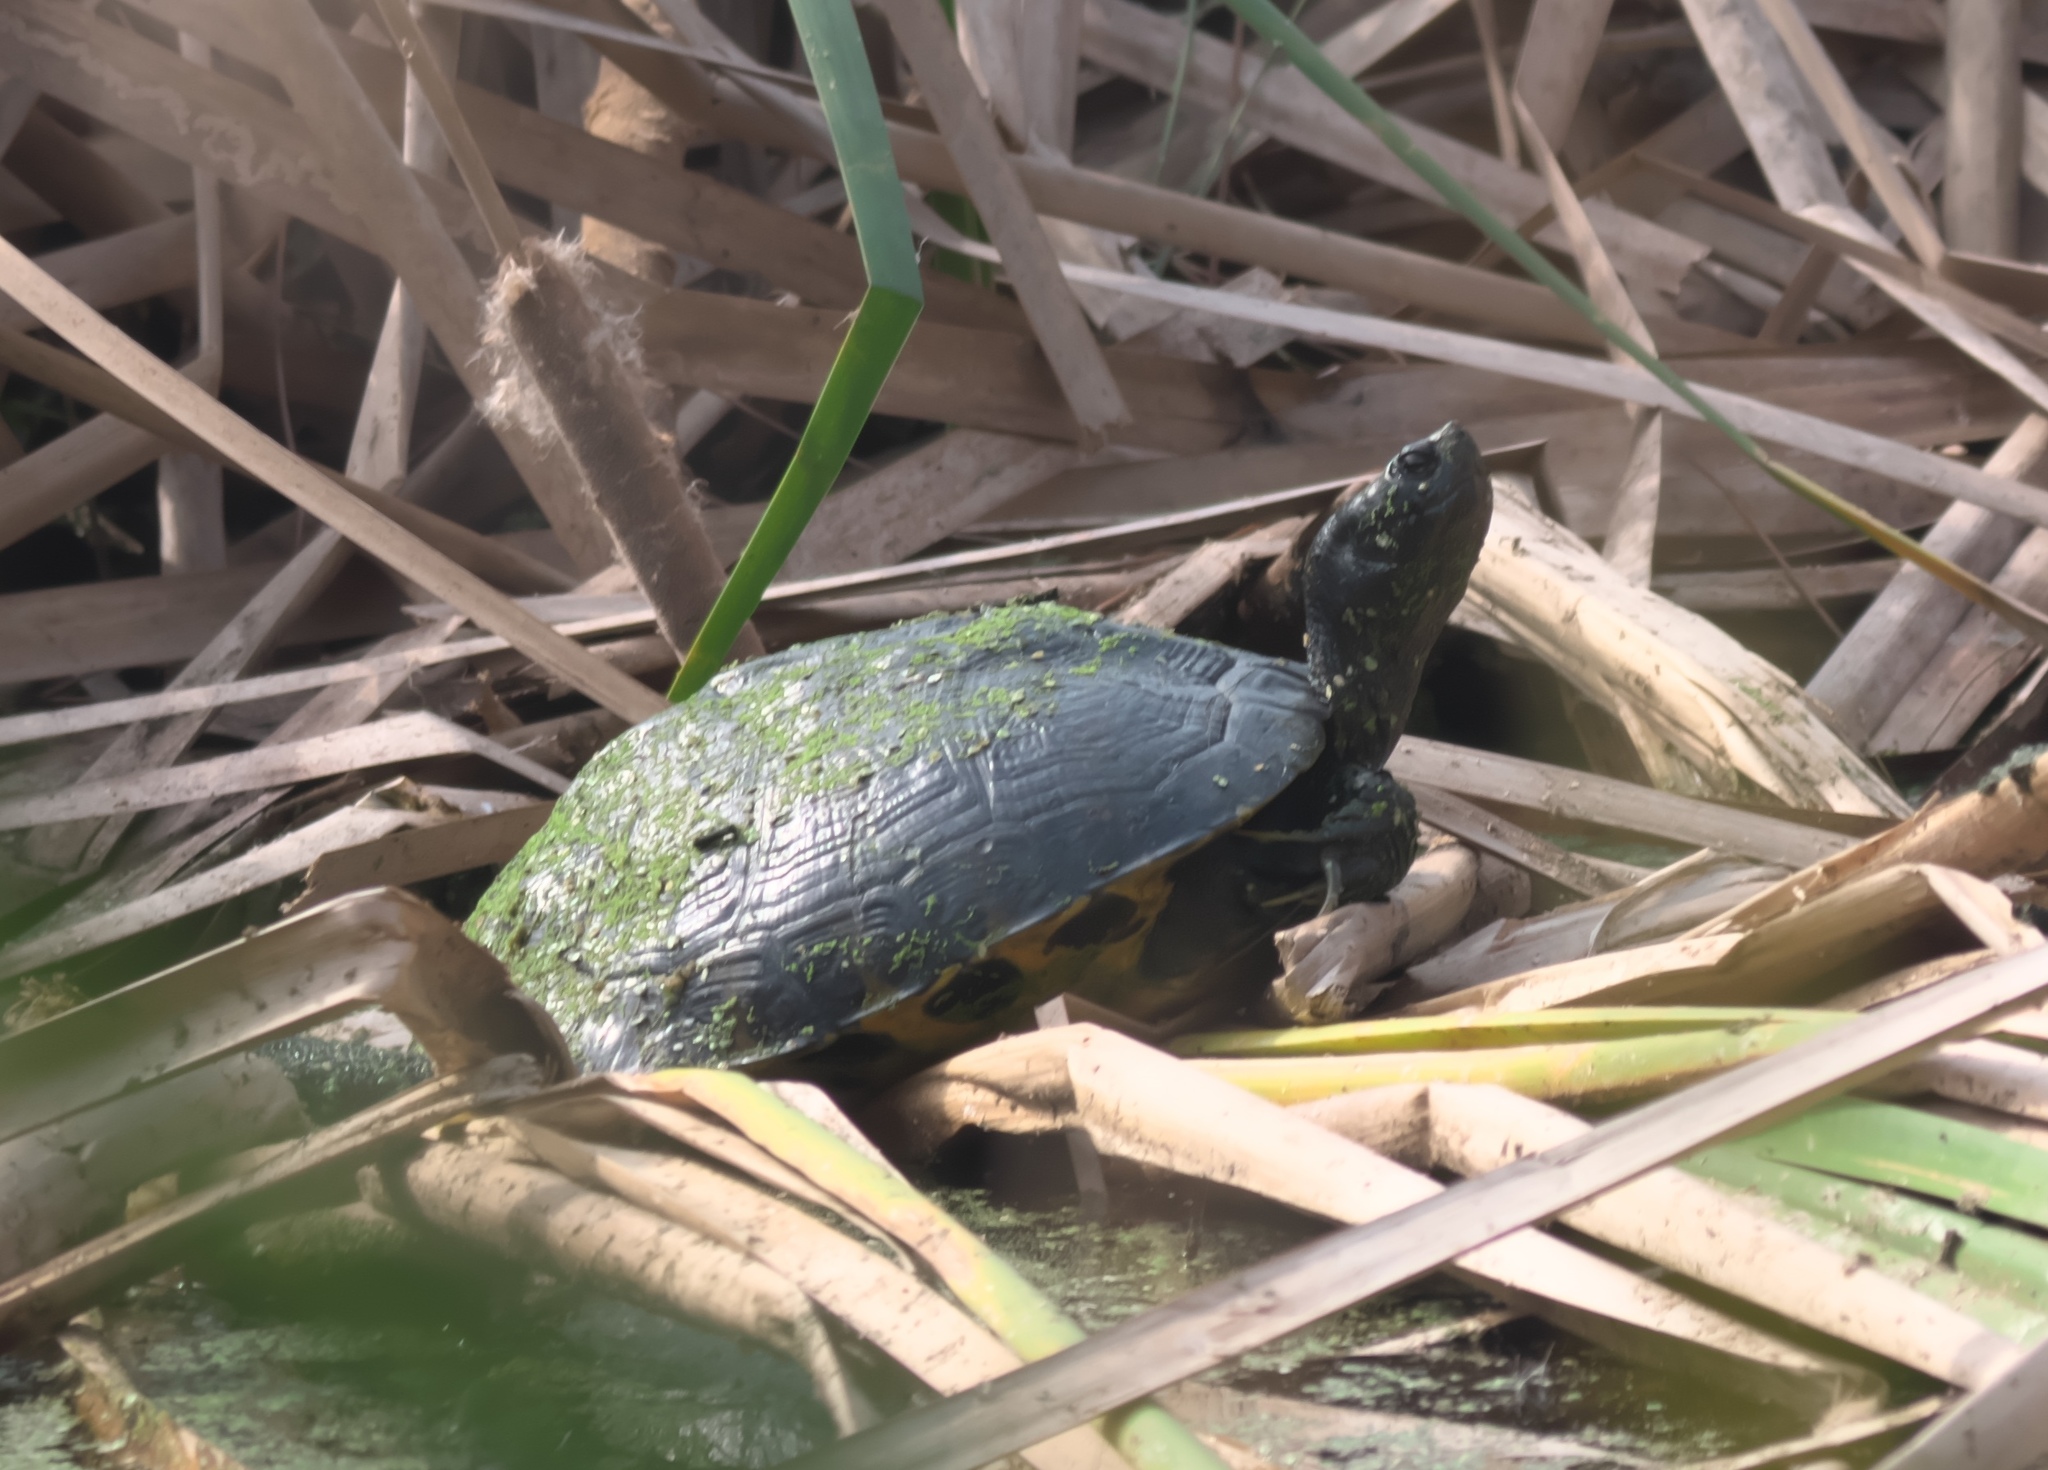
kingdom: Animalia
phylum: Chordata
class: Testudines
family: Emydidae
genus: Trachemys
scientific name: Trachemys scripta
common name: Slider
